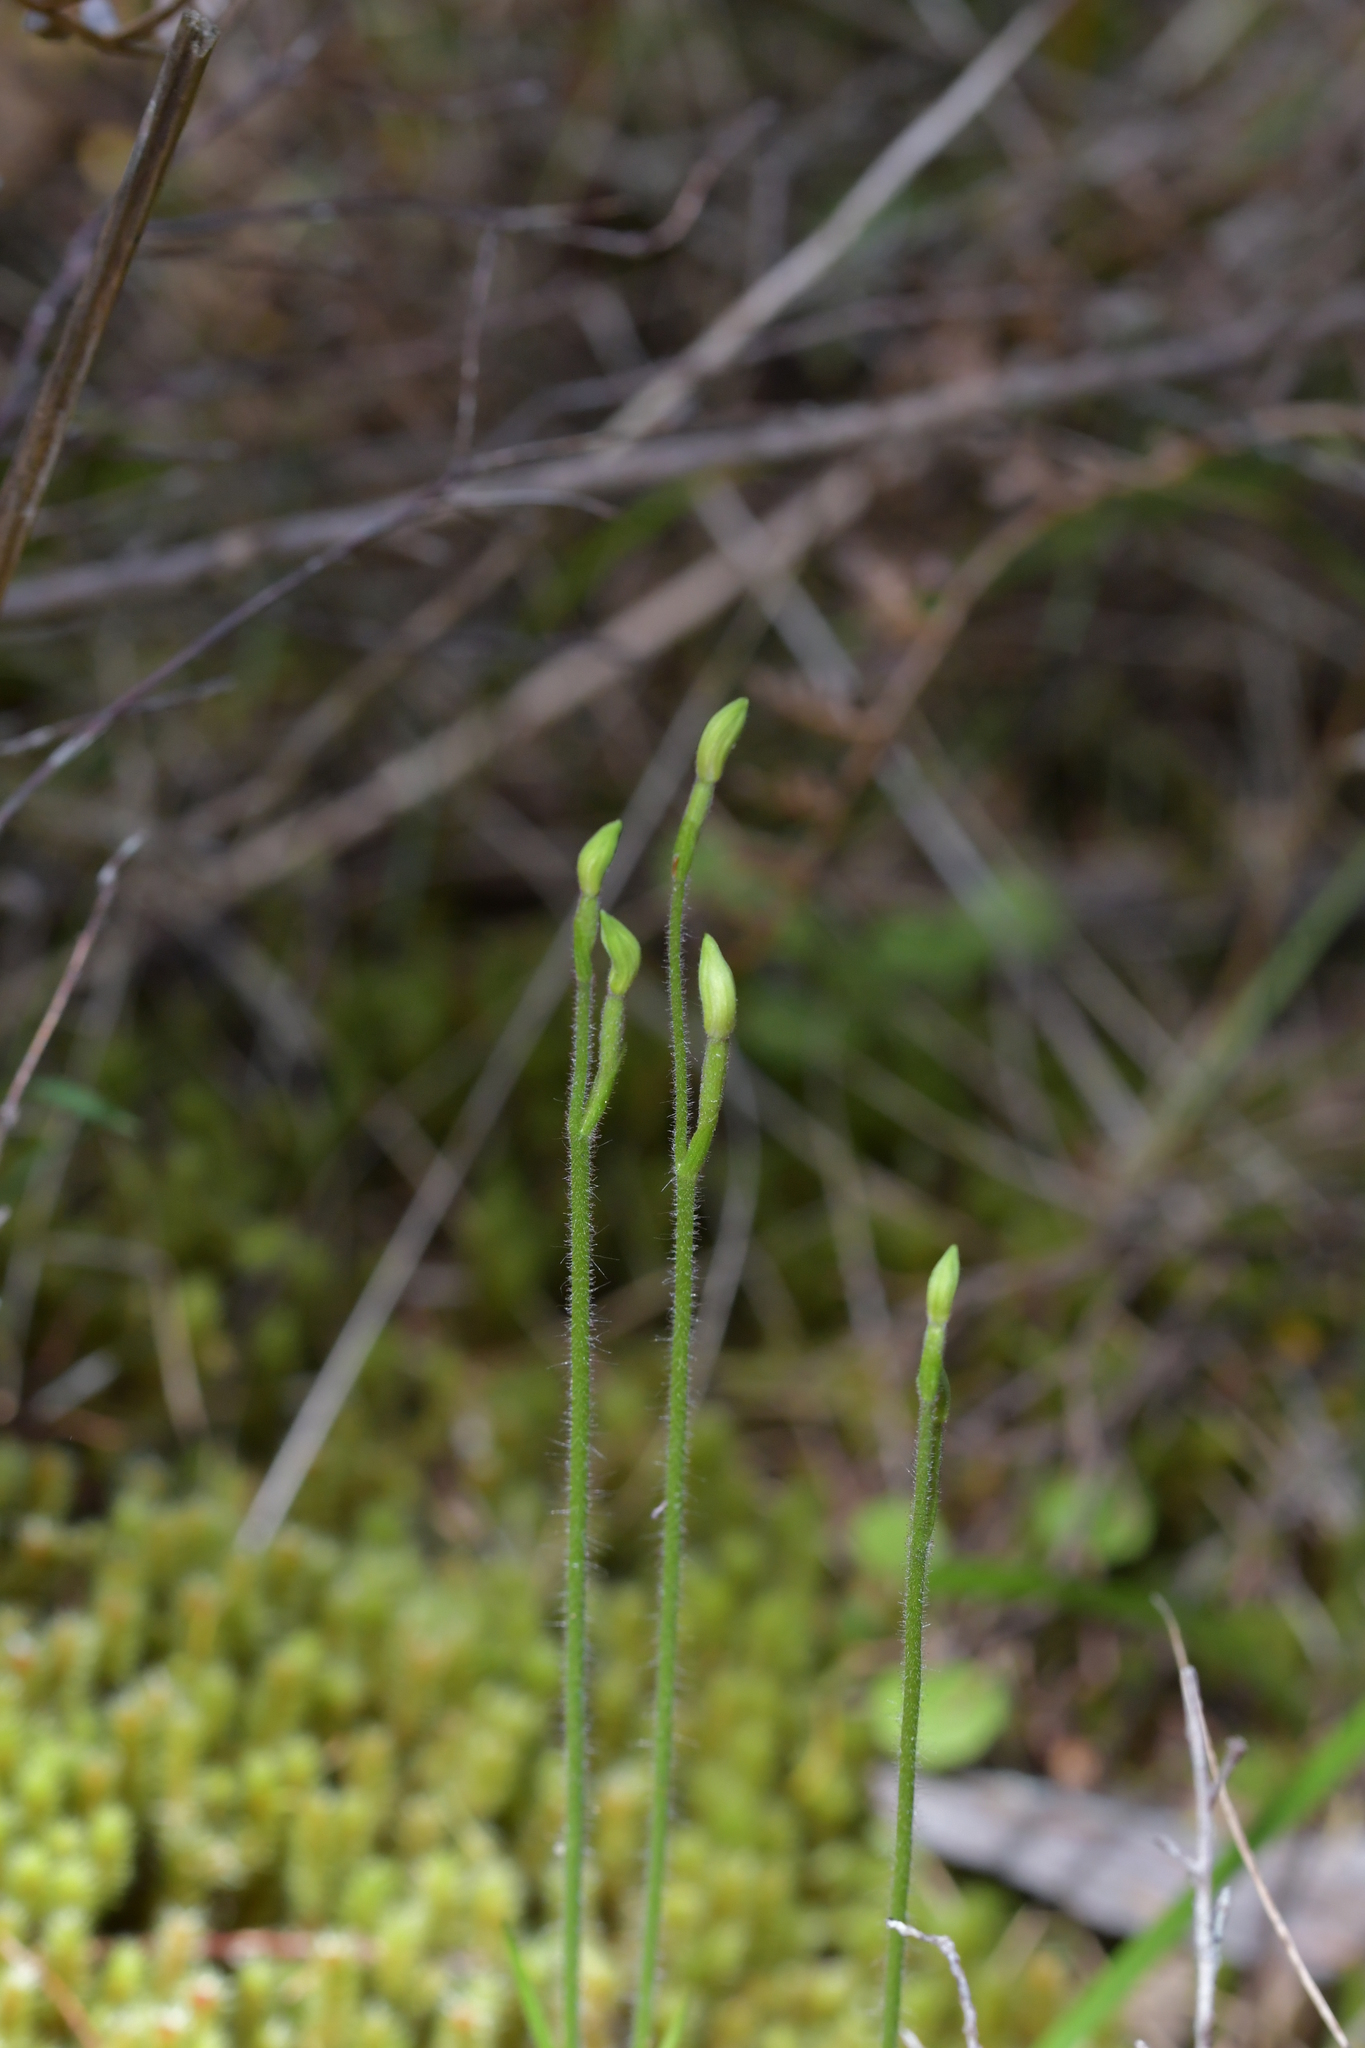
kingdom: Plantae
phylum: Tracheophyta
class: Liliopsida
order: Asparagales
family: Orchidaceae
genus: Caladenia
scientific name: Caladenia chlorostyla
